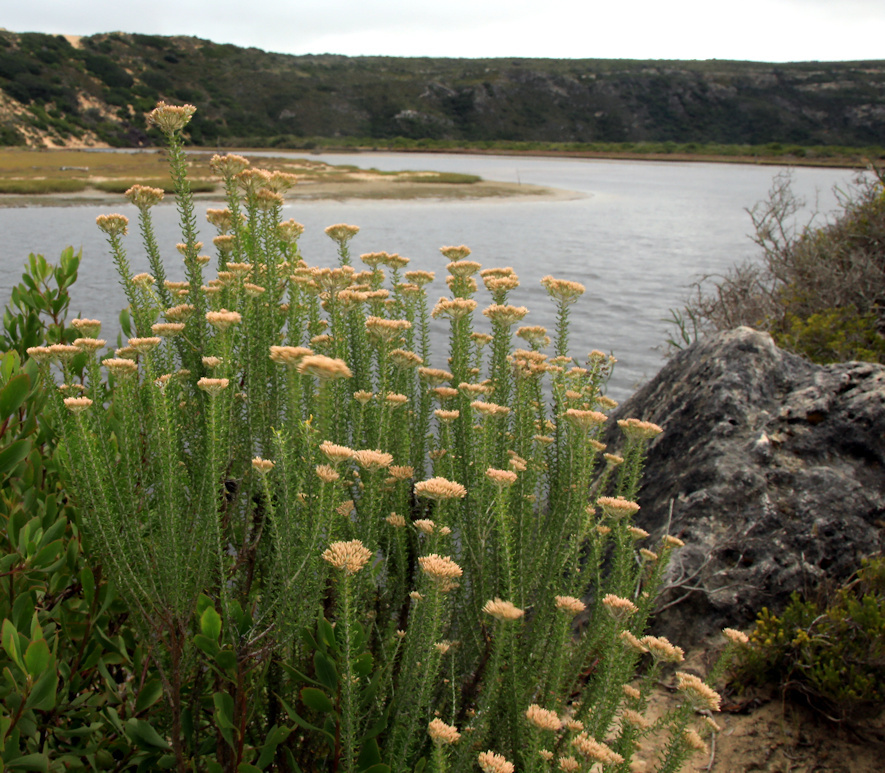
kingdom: Plantae
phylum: Tracheophyta
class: Magnoliopsida
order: Asterales
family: Asteraceae
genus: Metalasia
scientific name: Metalasia muricata
